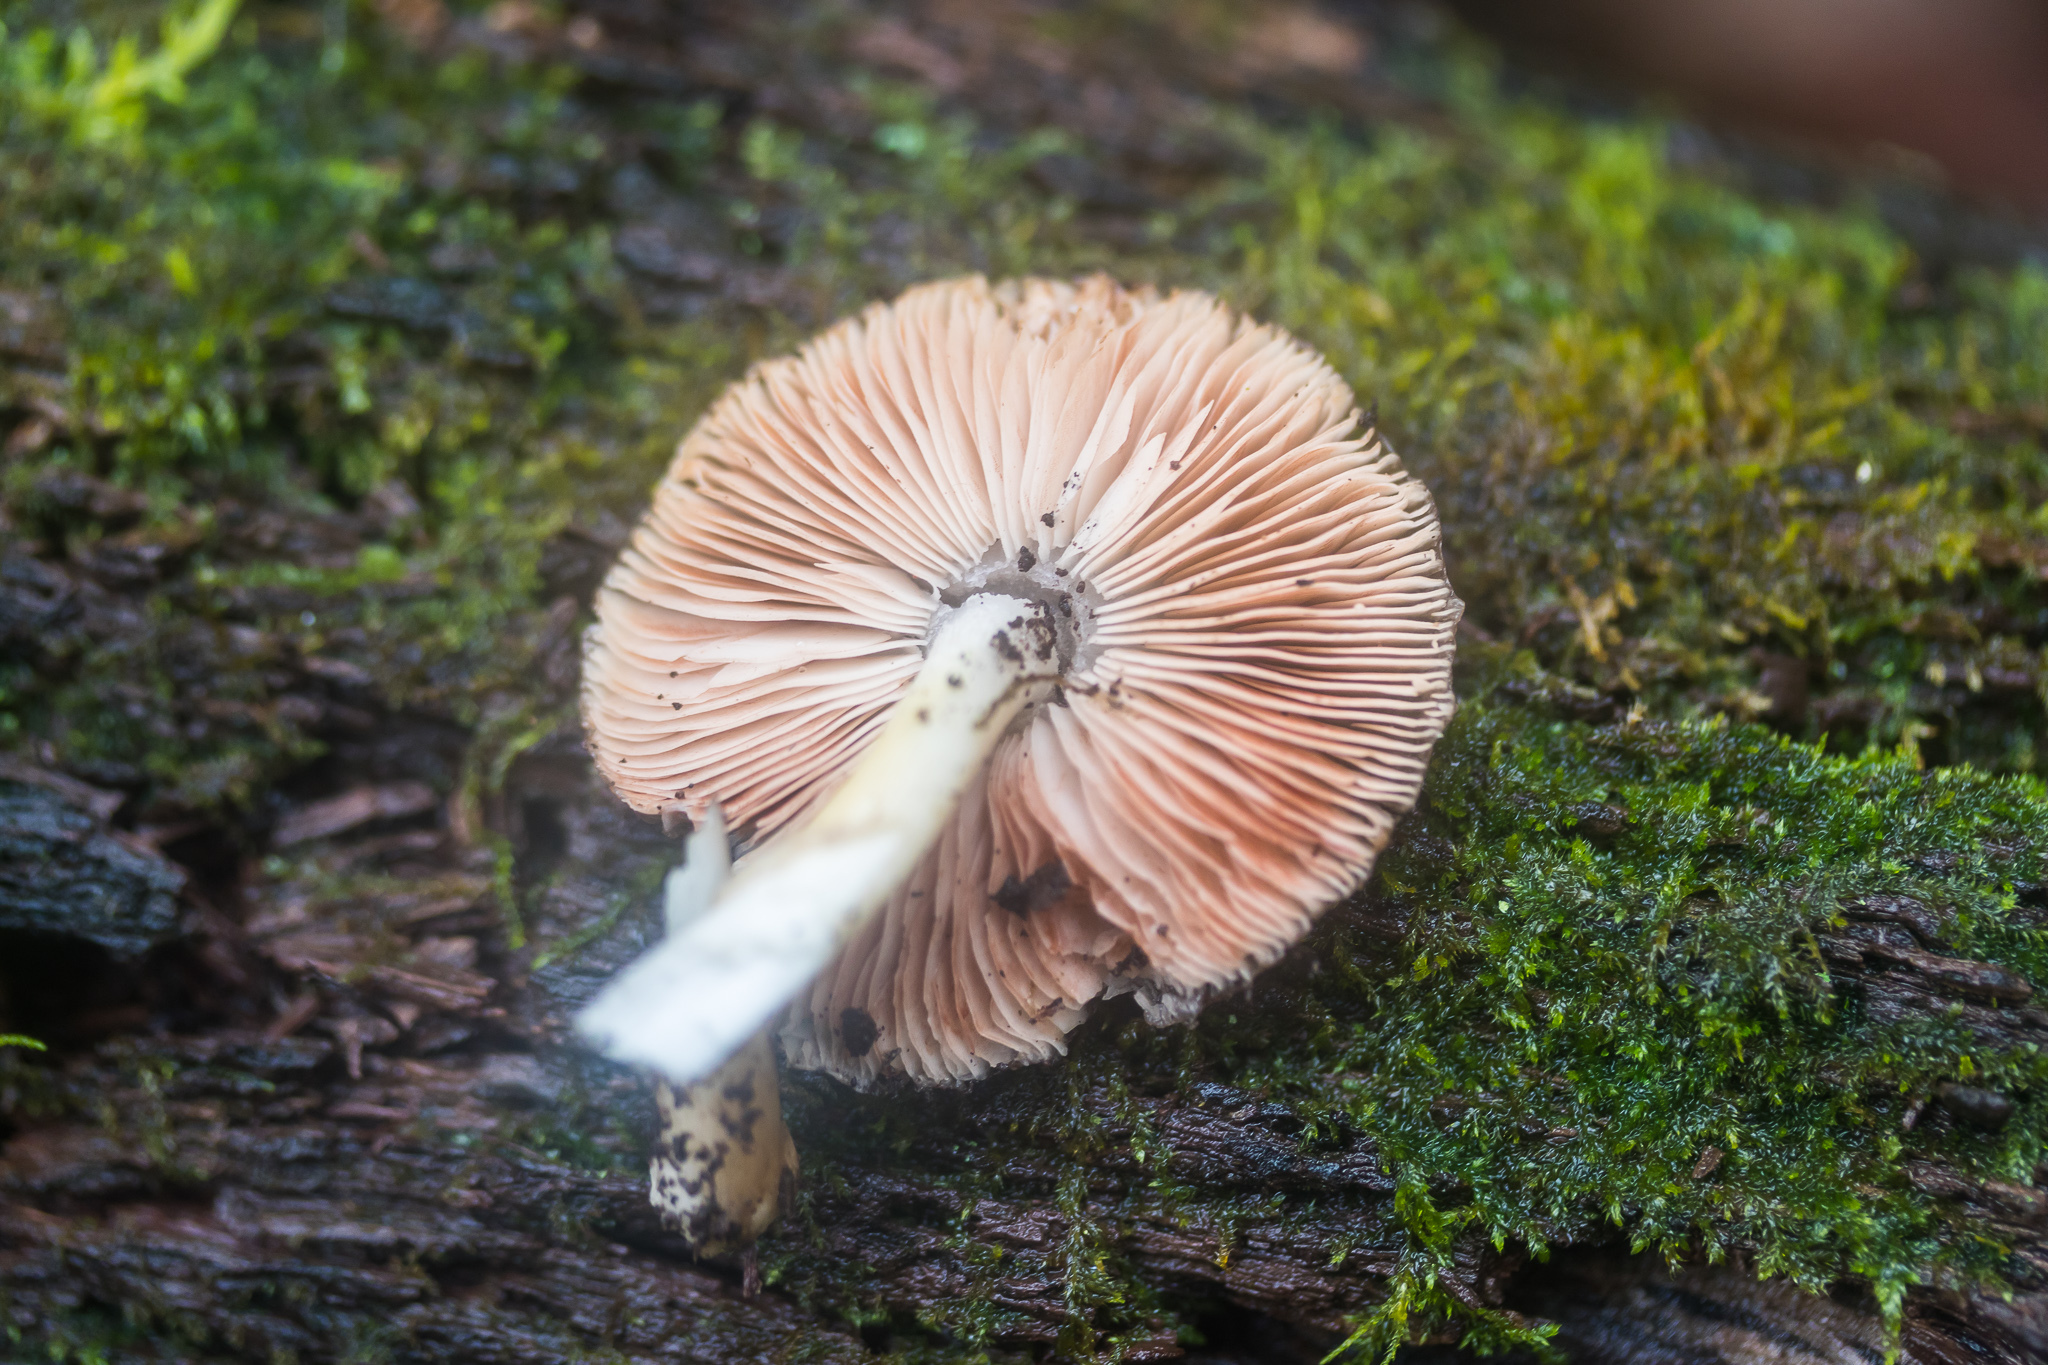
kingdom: Fungi
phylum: Basidiomycota
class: Agaricomycetes
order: Agaricales
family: Pluteaceae
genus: Pluteus
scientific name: Pluteus cervinus
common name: Deer shield
